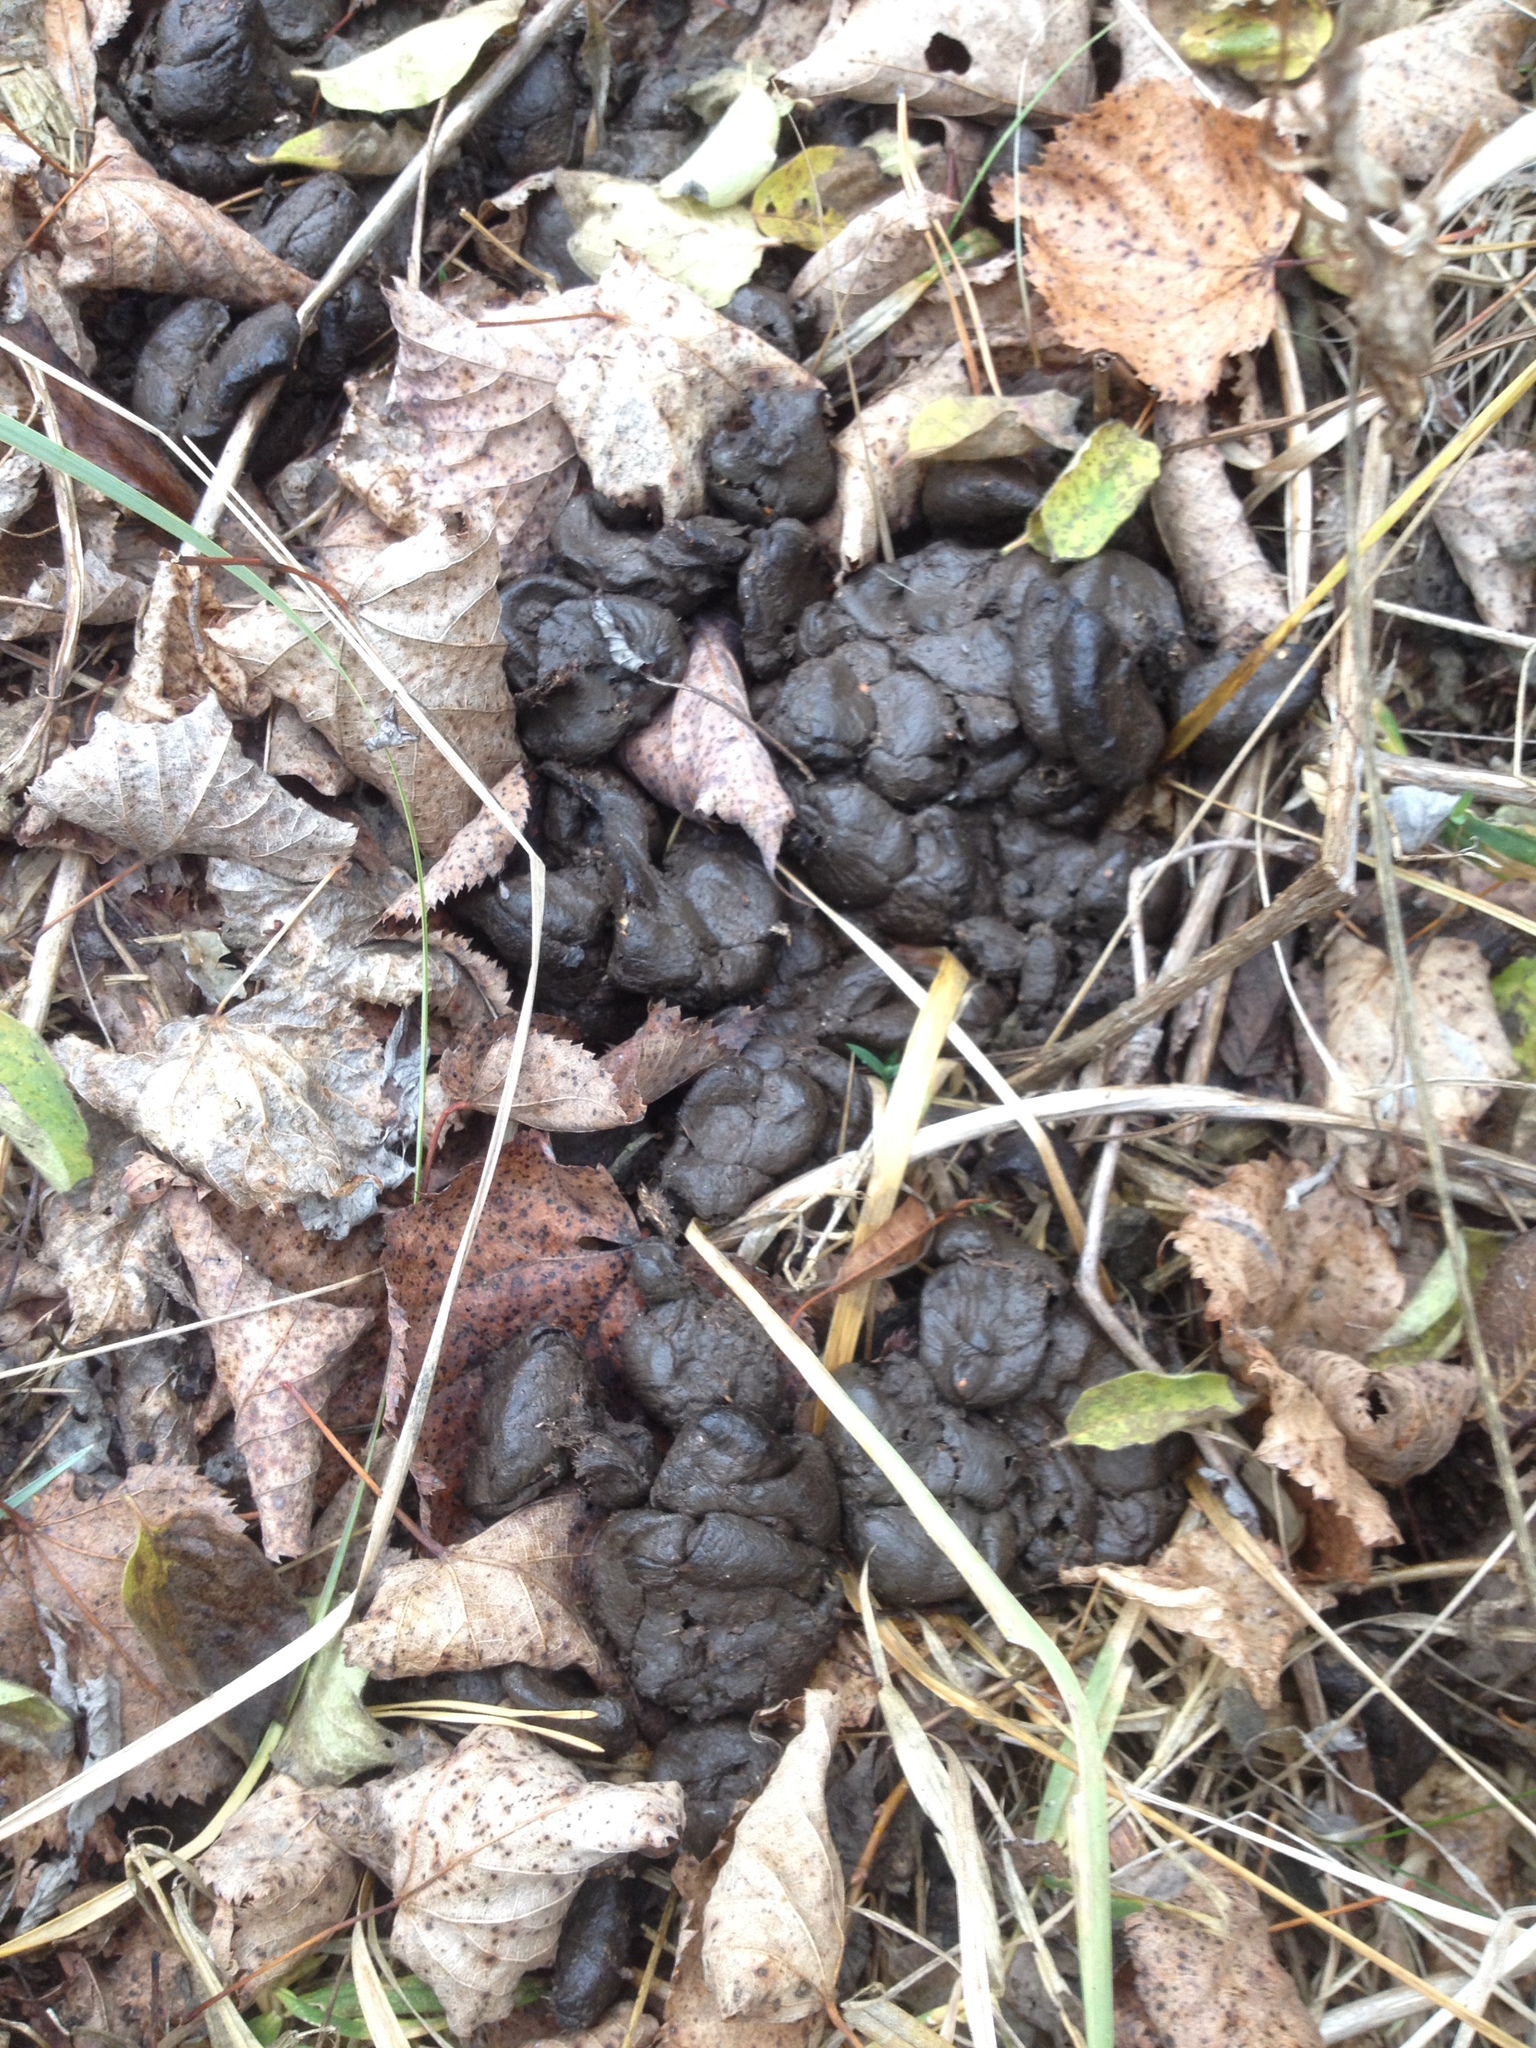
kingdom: Animalia
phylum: Chordata
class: Mammalia
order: Artiodactyla
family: Cervidae
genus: Alces
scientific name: Alces alces
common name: Moose
